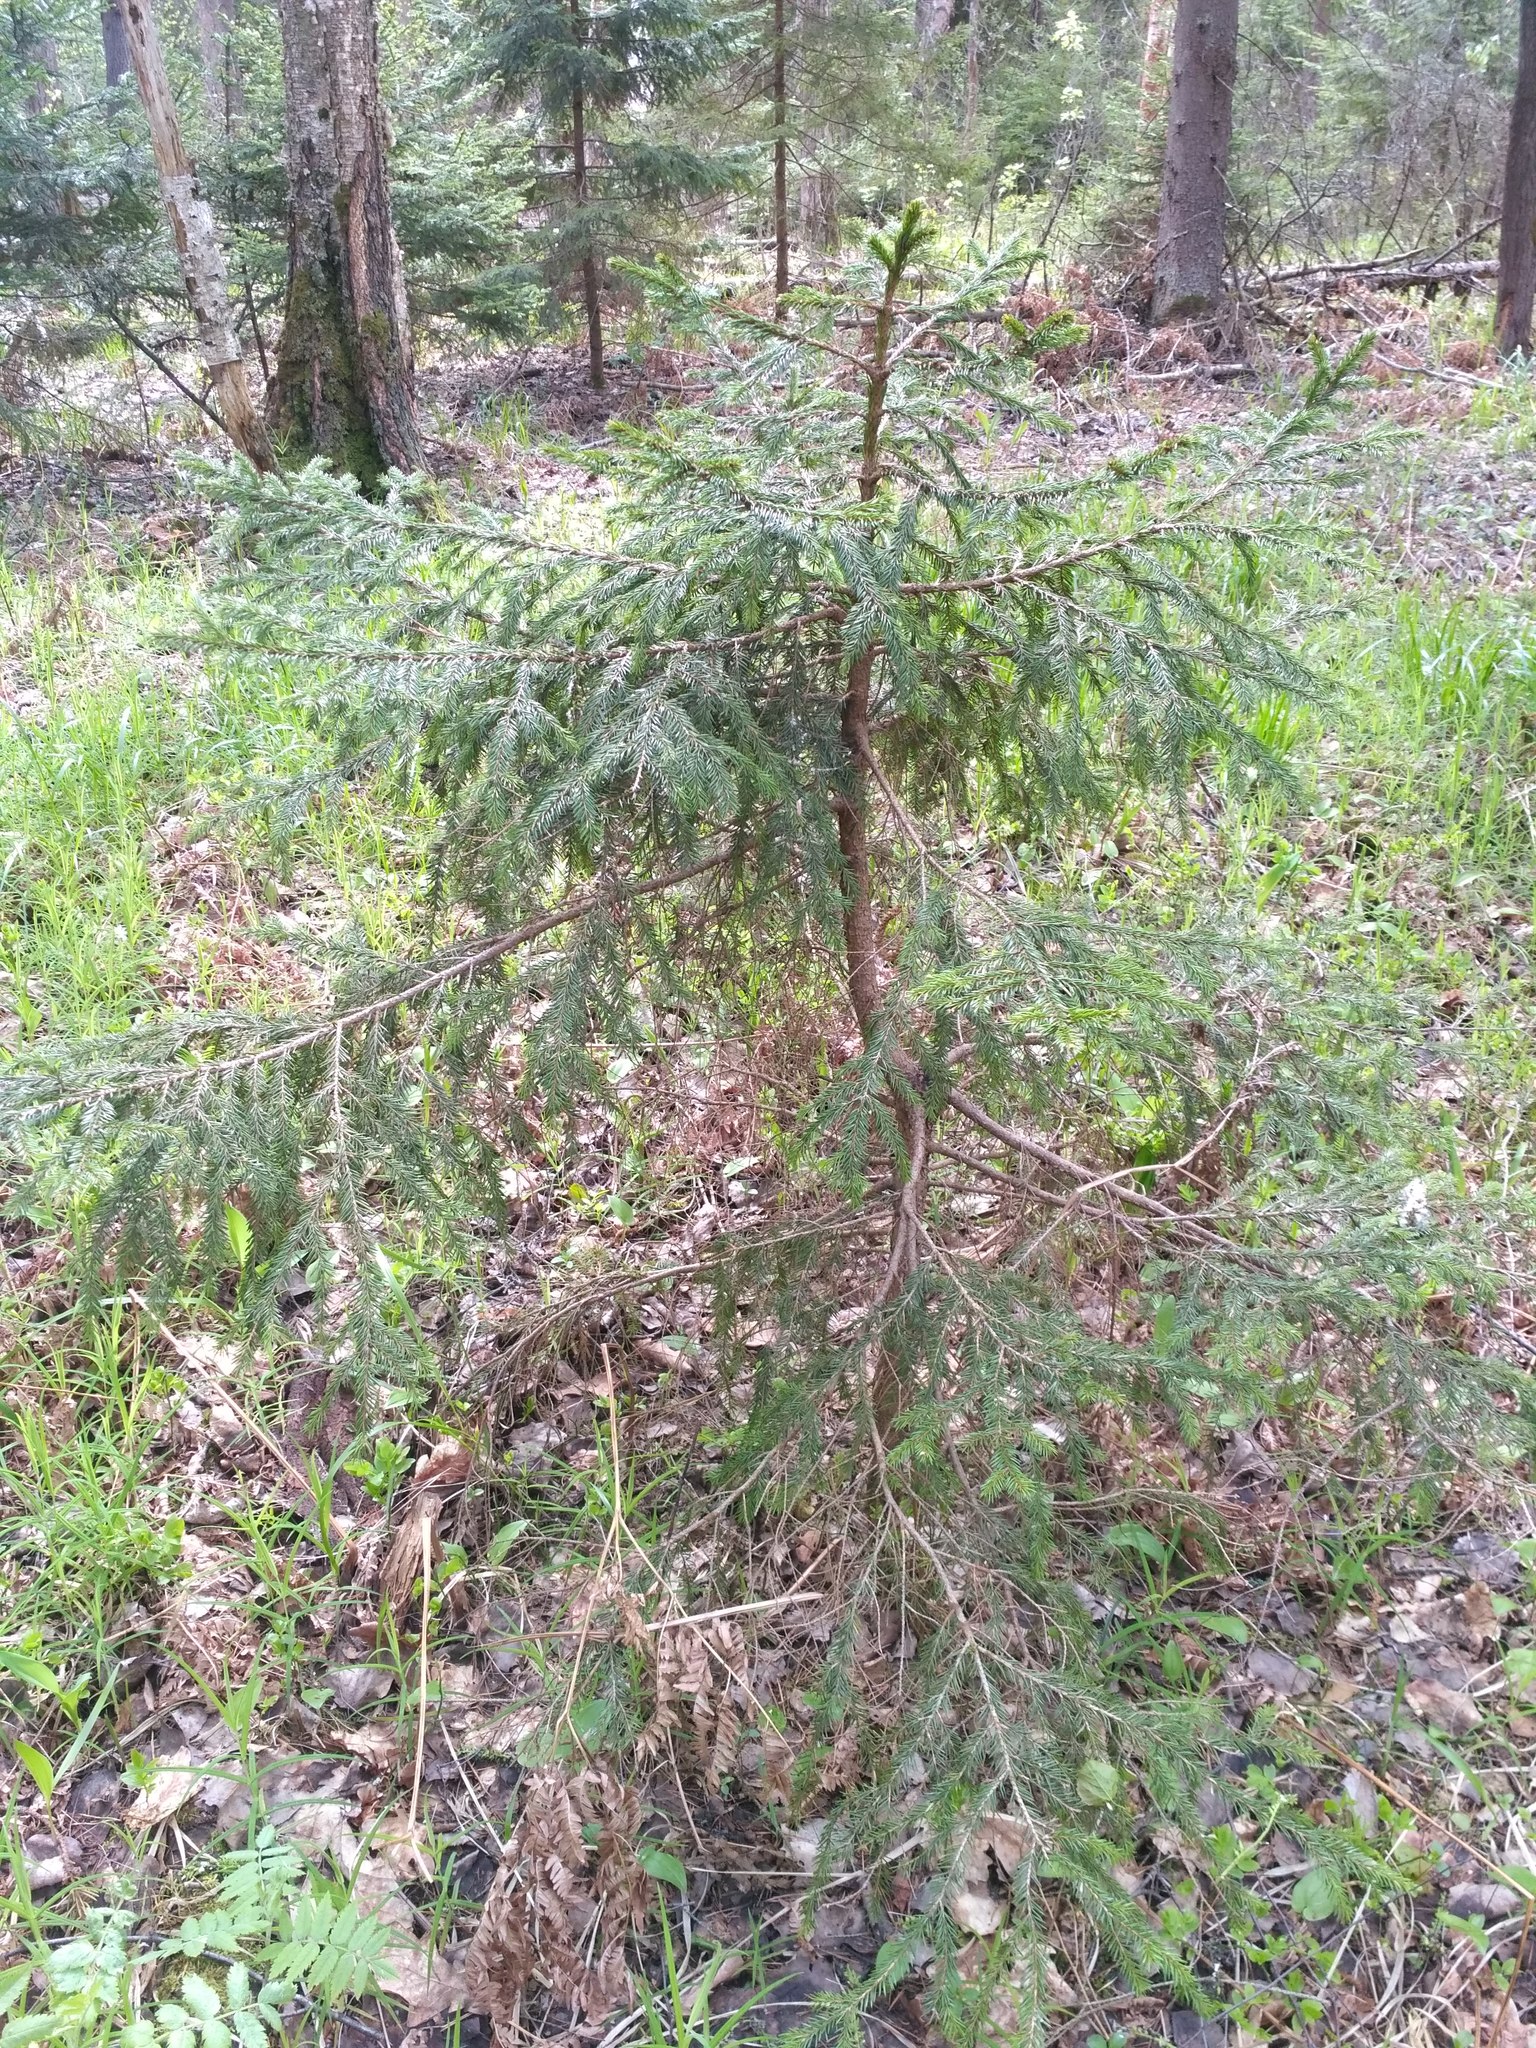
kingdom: Plantae
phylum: Tracheophyta
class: Pinopsida
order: Pinales
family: Pinaceae
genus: Picea
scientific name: Picea abies
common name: Norway spruce
